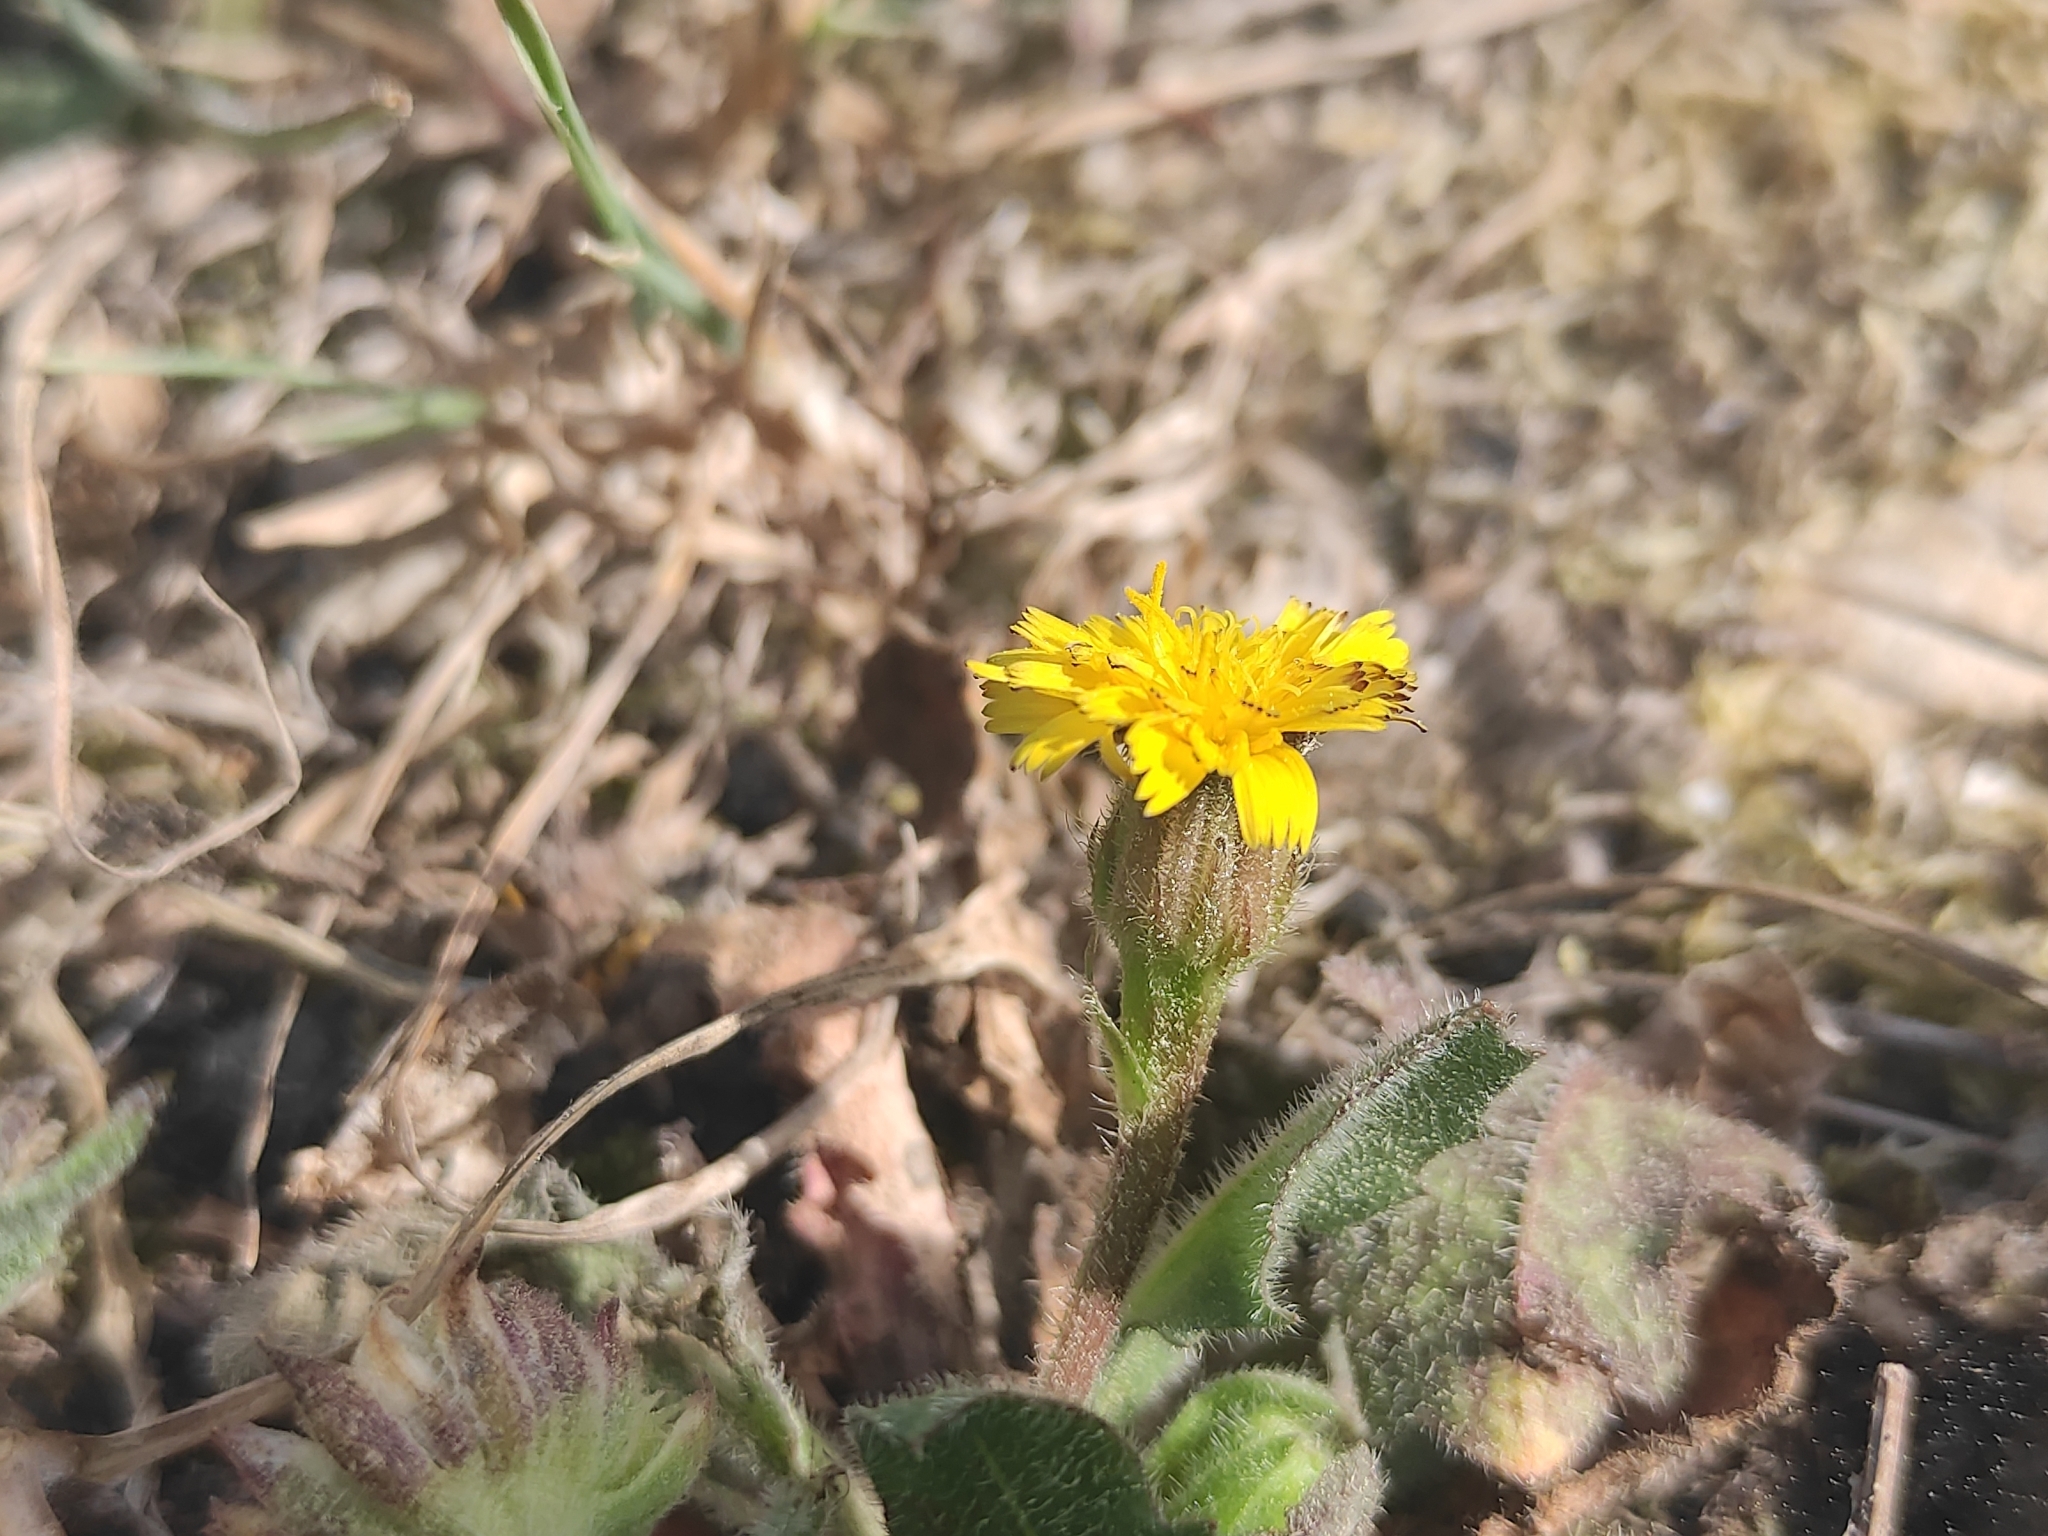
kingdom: Plantae
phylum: Tracheophyta
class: Magnoliopsida
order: Asterales
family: Asteraceae
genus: Hedypnois
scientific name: Hedypnois rhagadioloides
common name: Cretan weed
